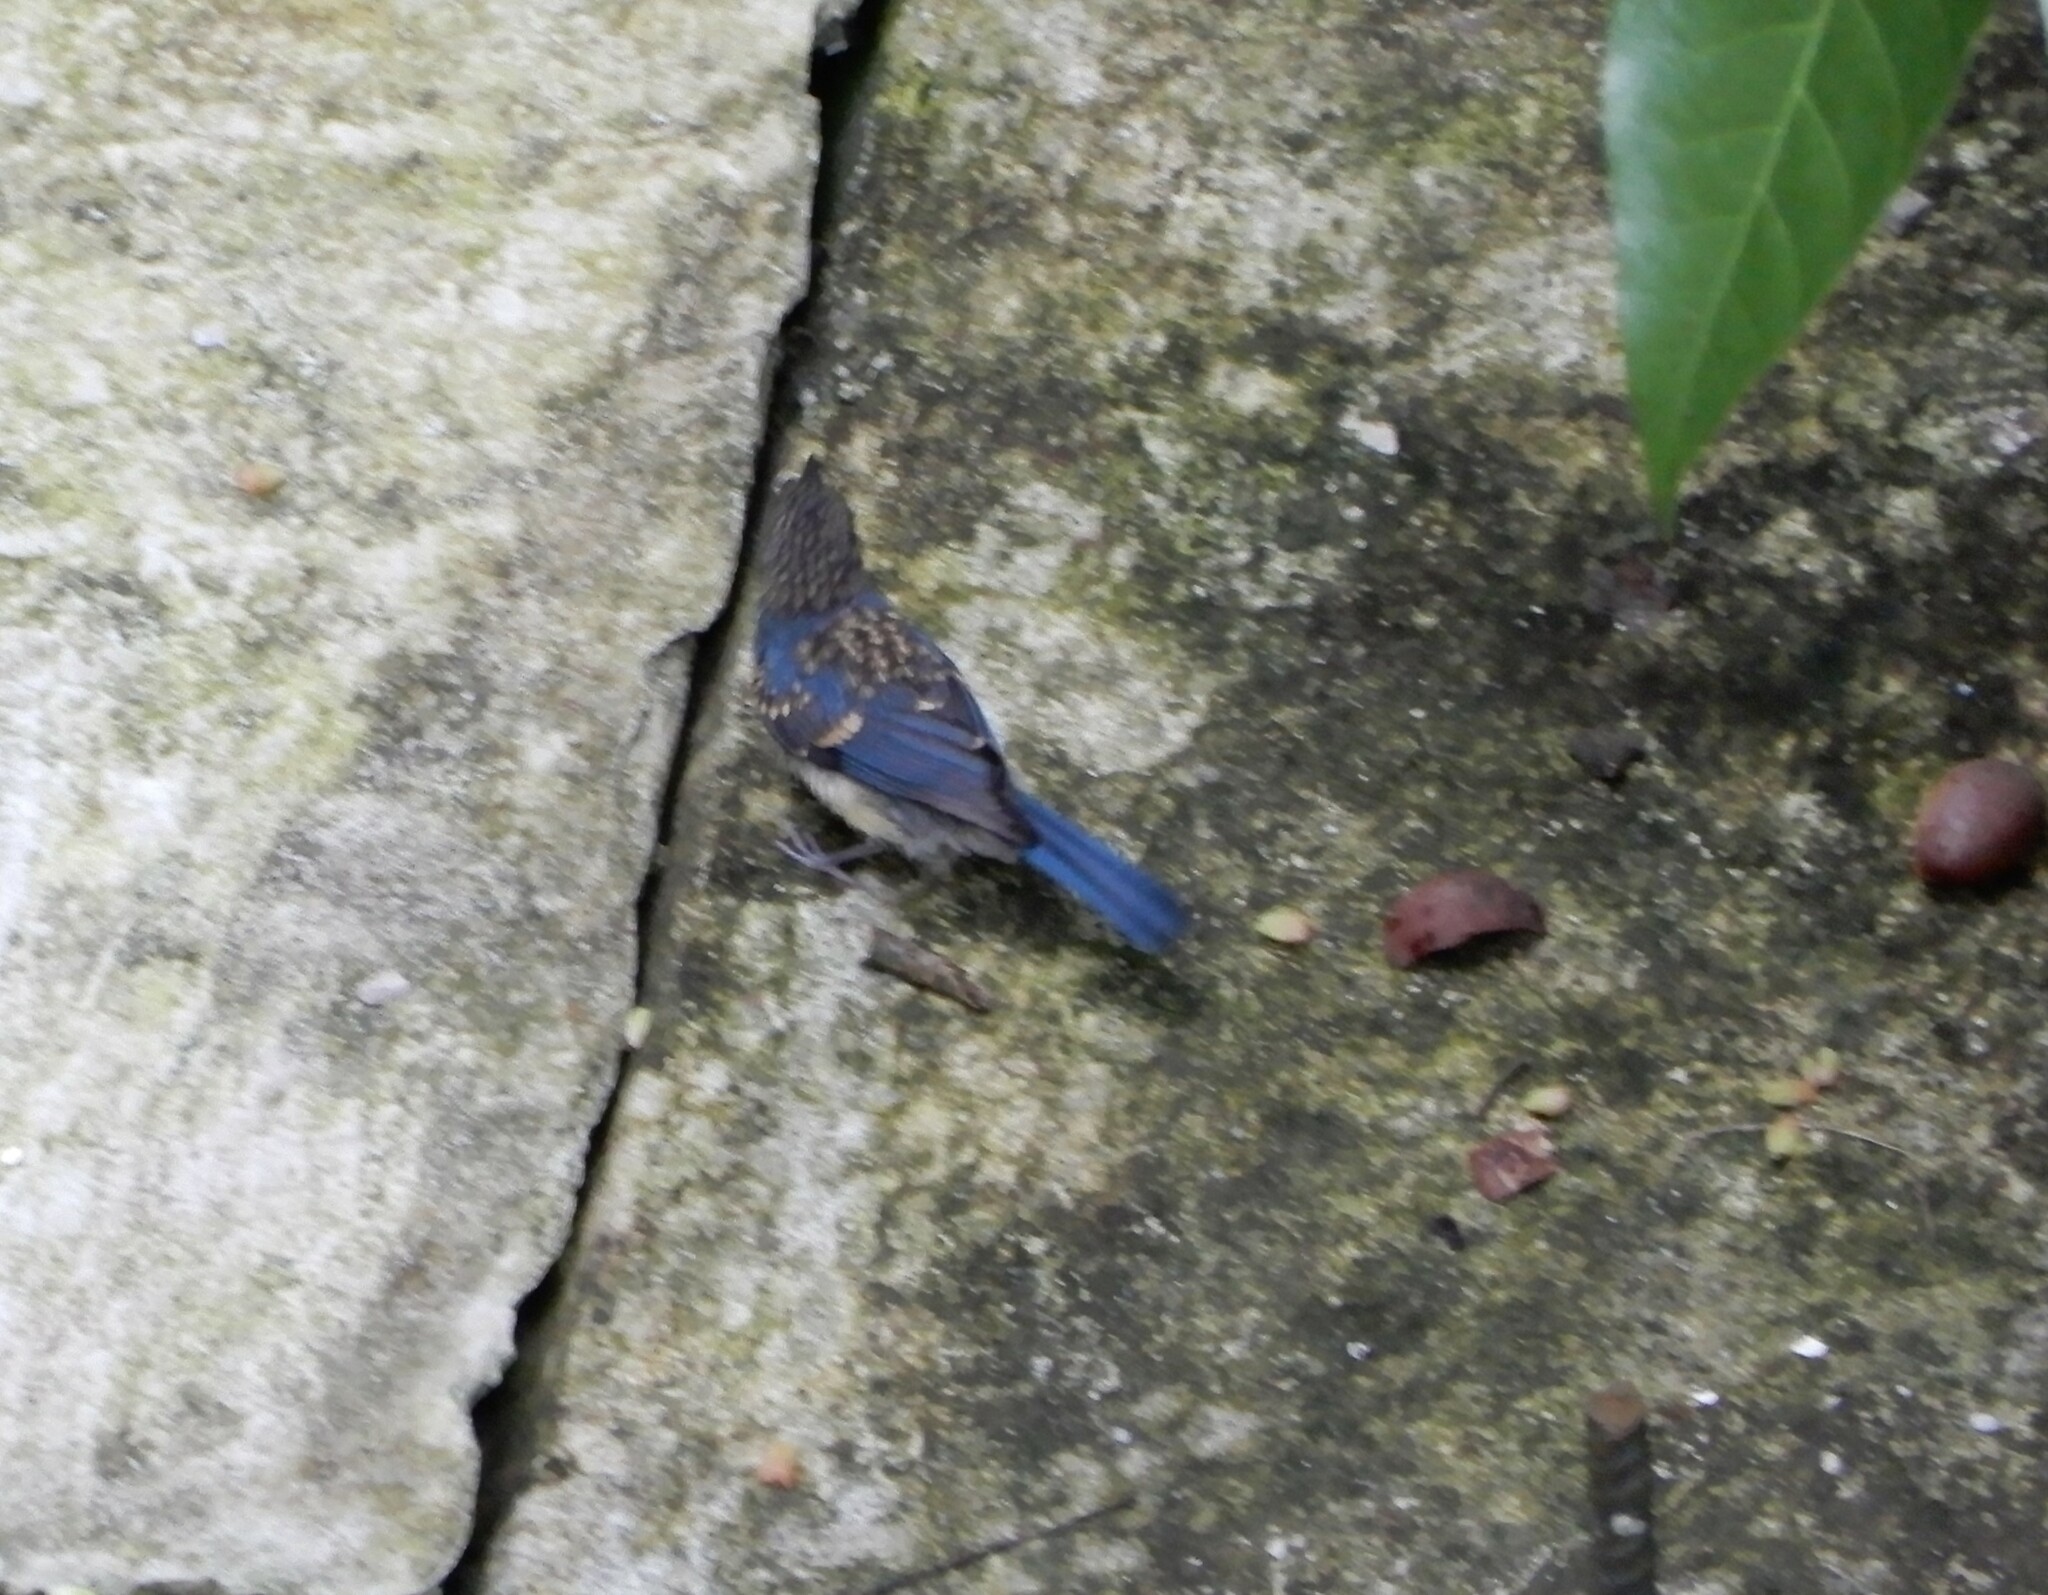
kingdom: Animalia
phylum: Chordata
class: Aves
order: Passeriformes
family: Muscicapidae
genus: Cyornis
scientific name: Cyornis rufigastra
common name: Mangrove blue flycatcher
